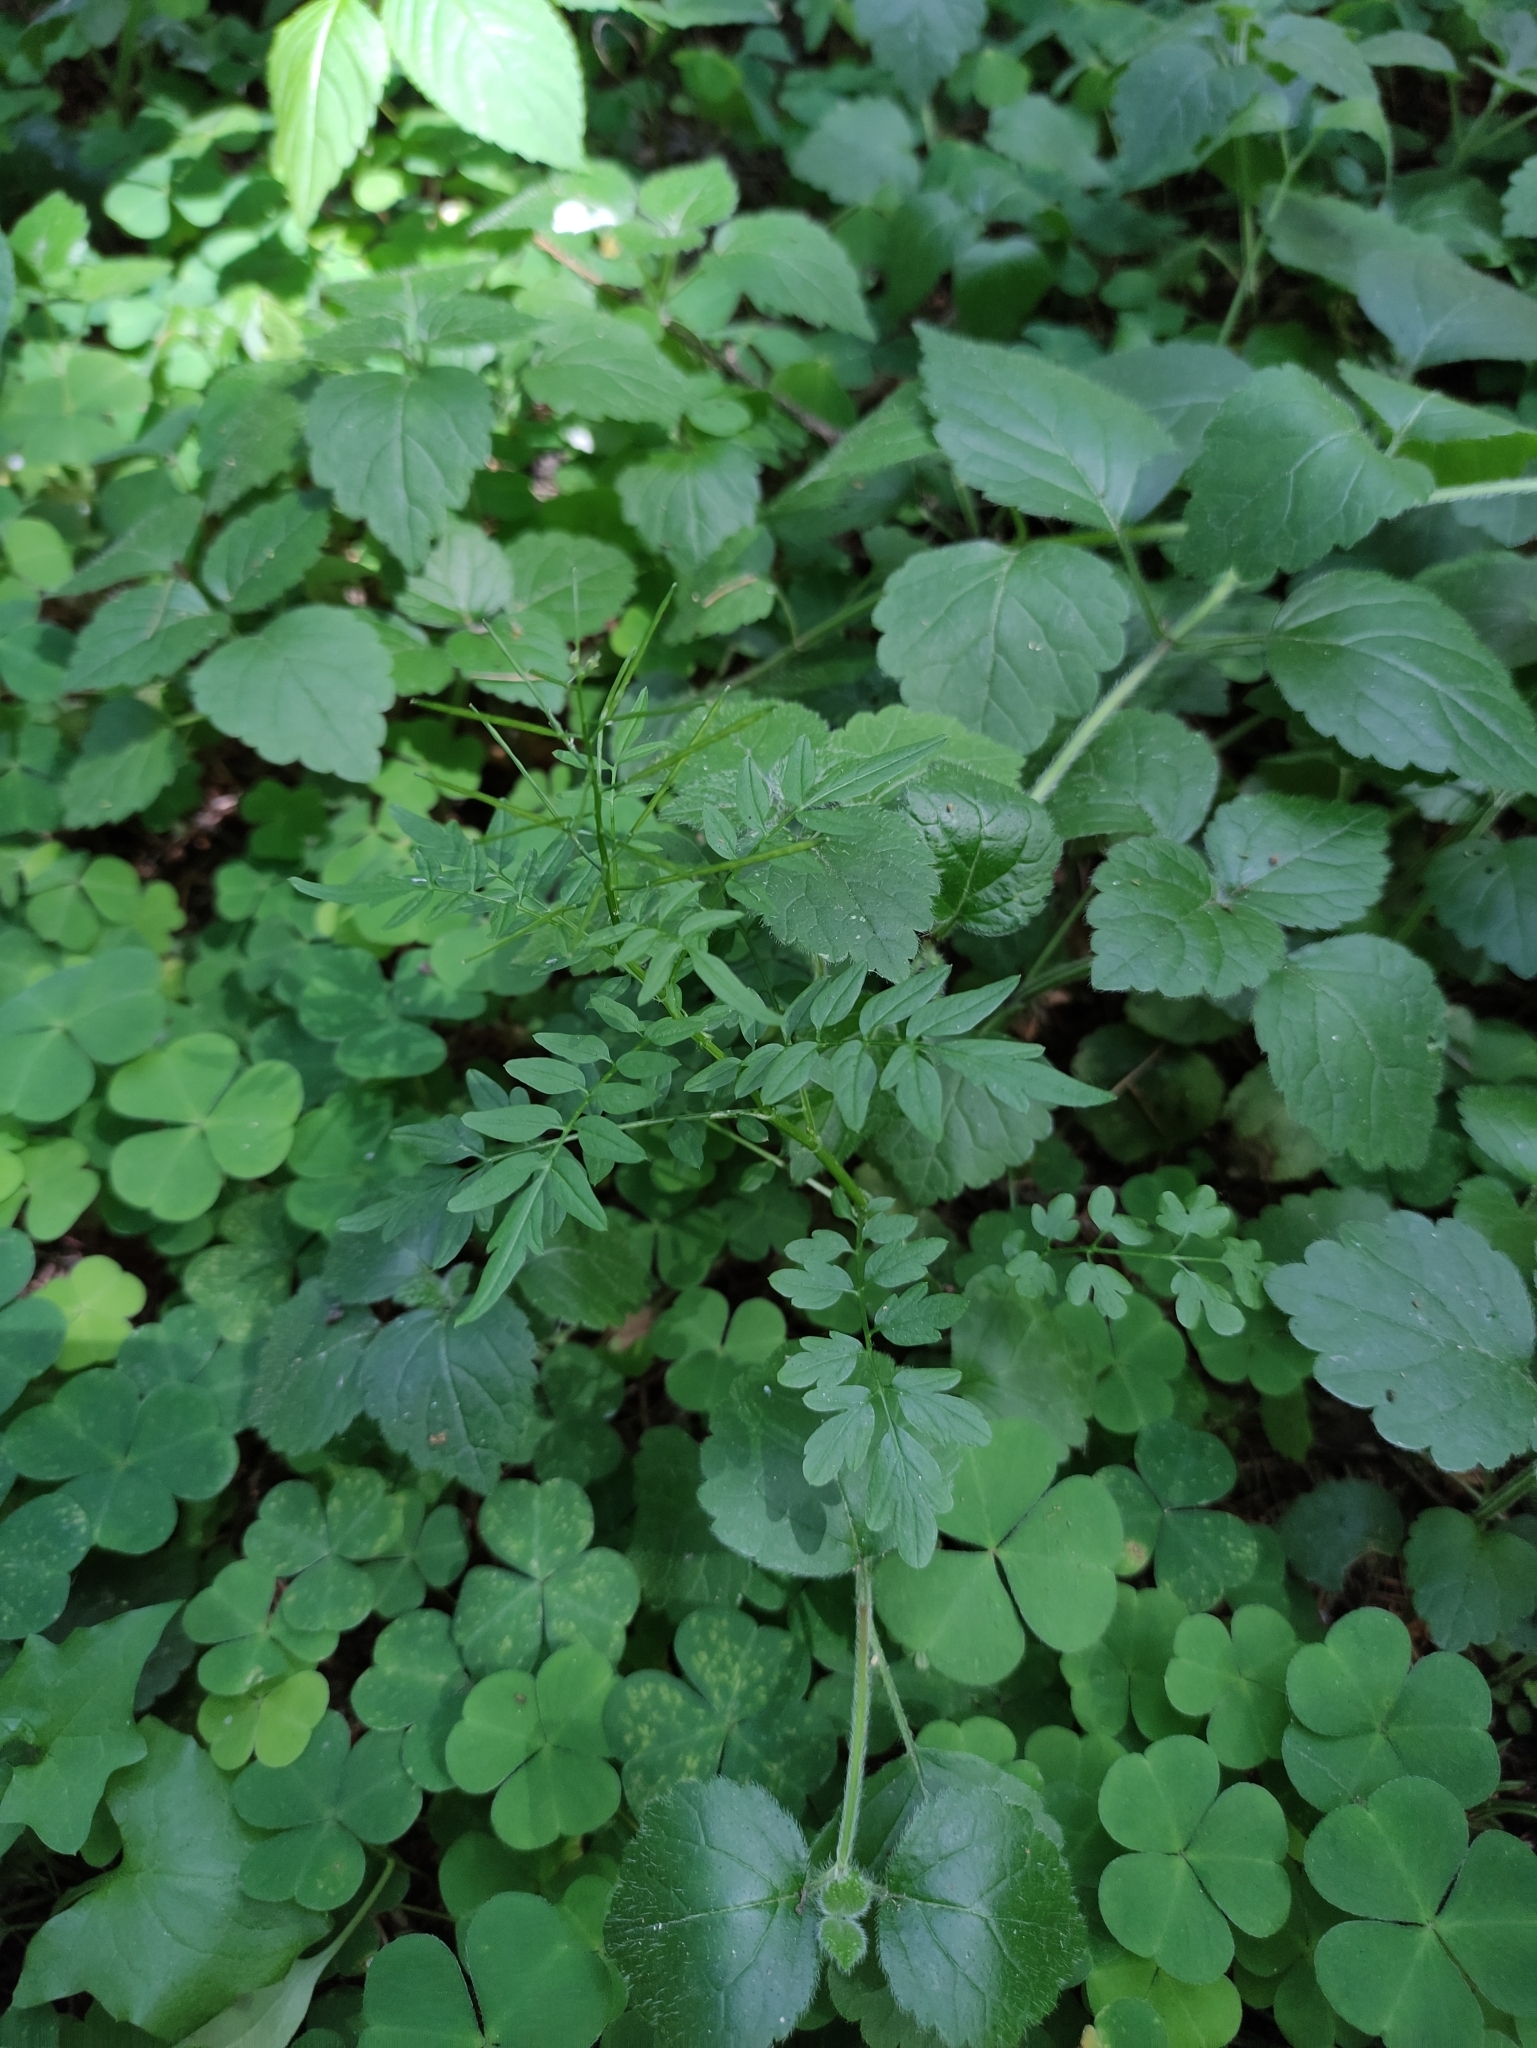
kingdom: Plantae
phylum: Tracheophyta
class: Magnoliopsida
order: Brassicales
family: Brassicaceae
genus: Cardamine
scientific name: Cardamine impatiens
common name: Narrow-leaved bitter-cress
